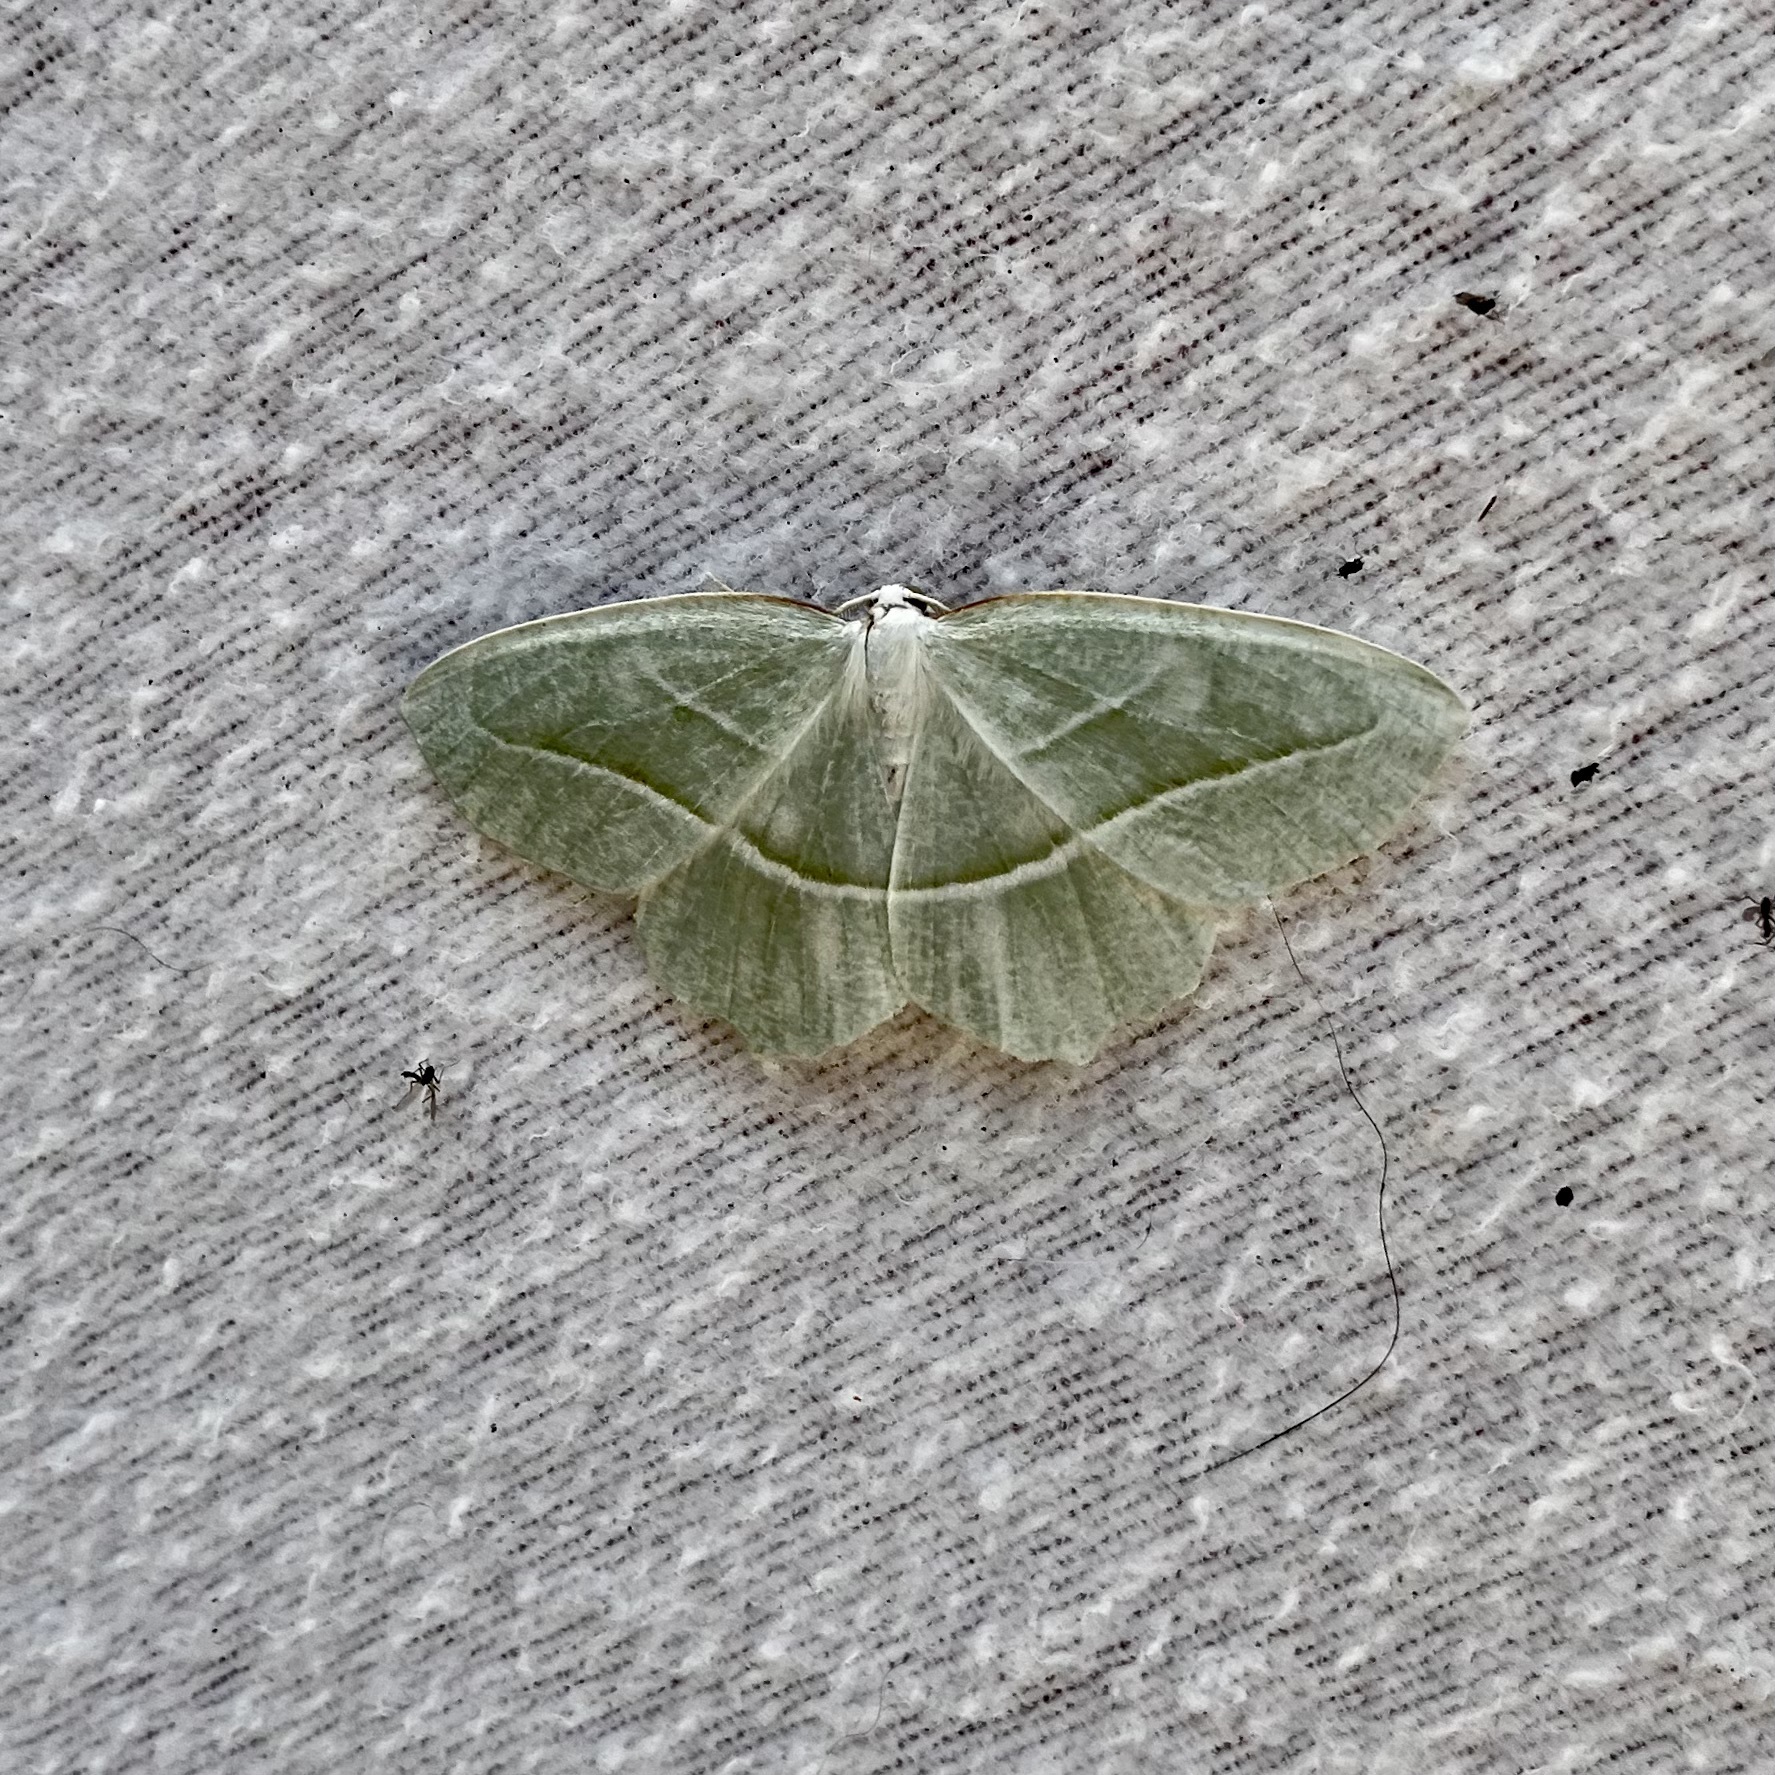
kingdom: Animalia
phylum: Arthropoda
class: Insecta
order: Lepidoptera
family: Geometridae
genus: Campaea
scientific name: Campaea perlata
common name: Fringed looper
